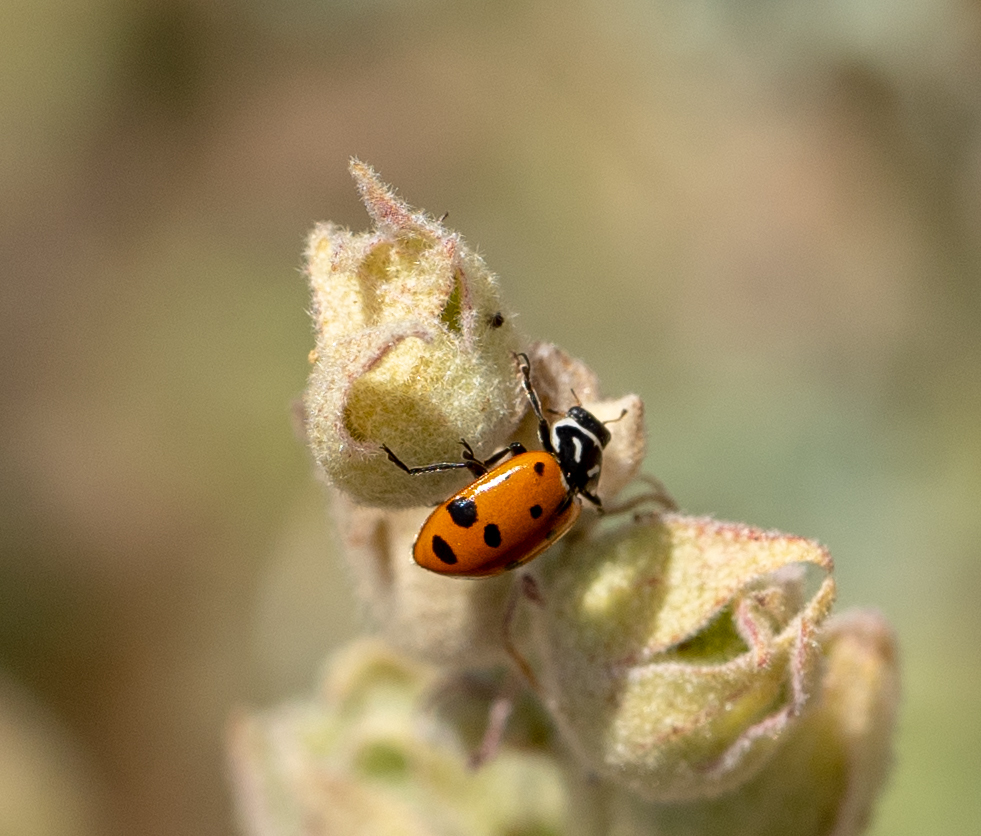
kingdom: Animalia
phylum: Arthropoda
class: Insecta
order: Coleoptera
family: Coccinellidae
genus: Hippodamia
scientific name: Hippodamia convergens
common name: Convergent lady beetle
